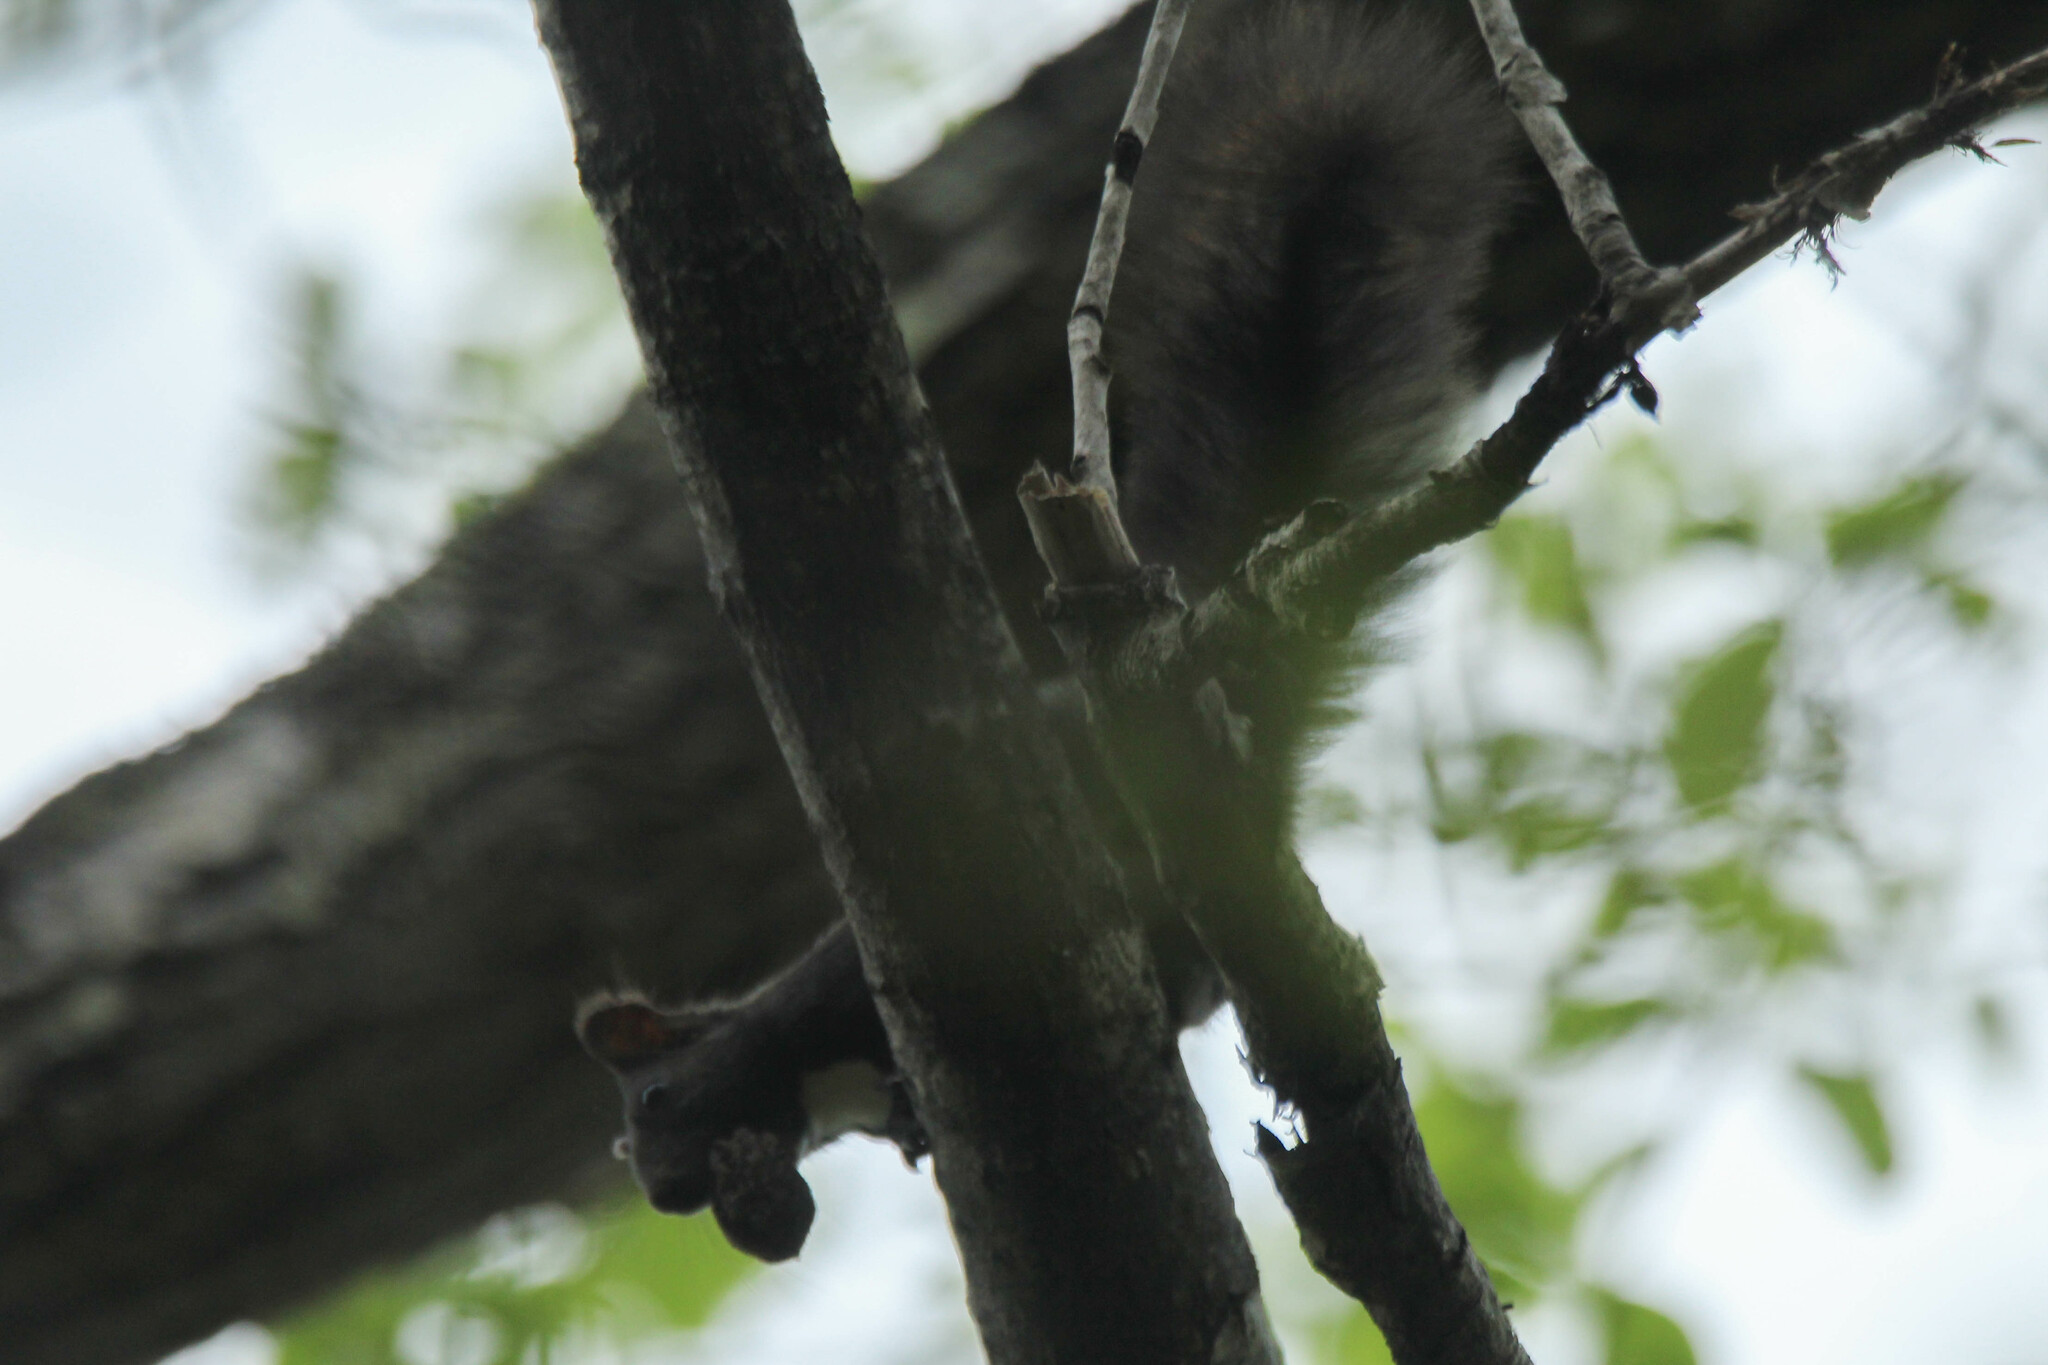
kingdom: Animalia
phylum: Chordata
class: Mammalia
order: Rodentia
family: Sciuridae
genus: Sciurus
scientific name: Sciurus vulgaris
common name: Eurasian red squirrel
